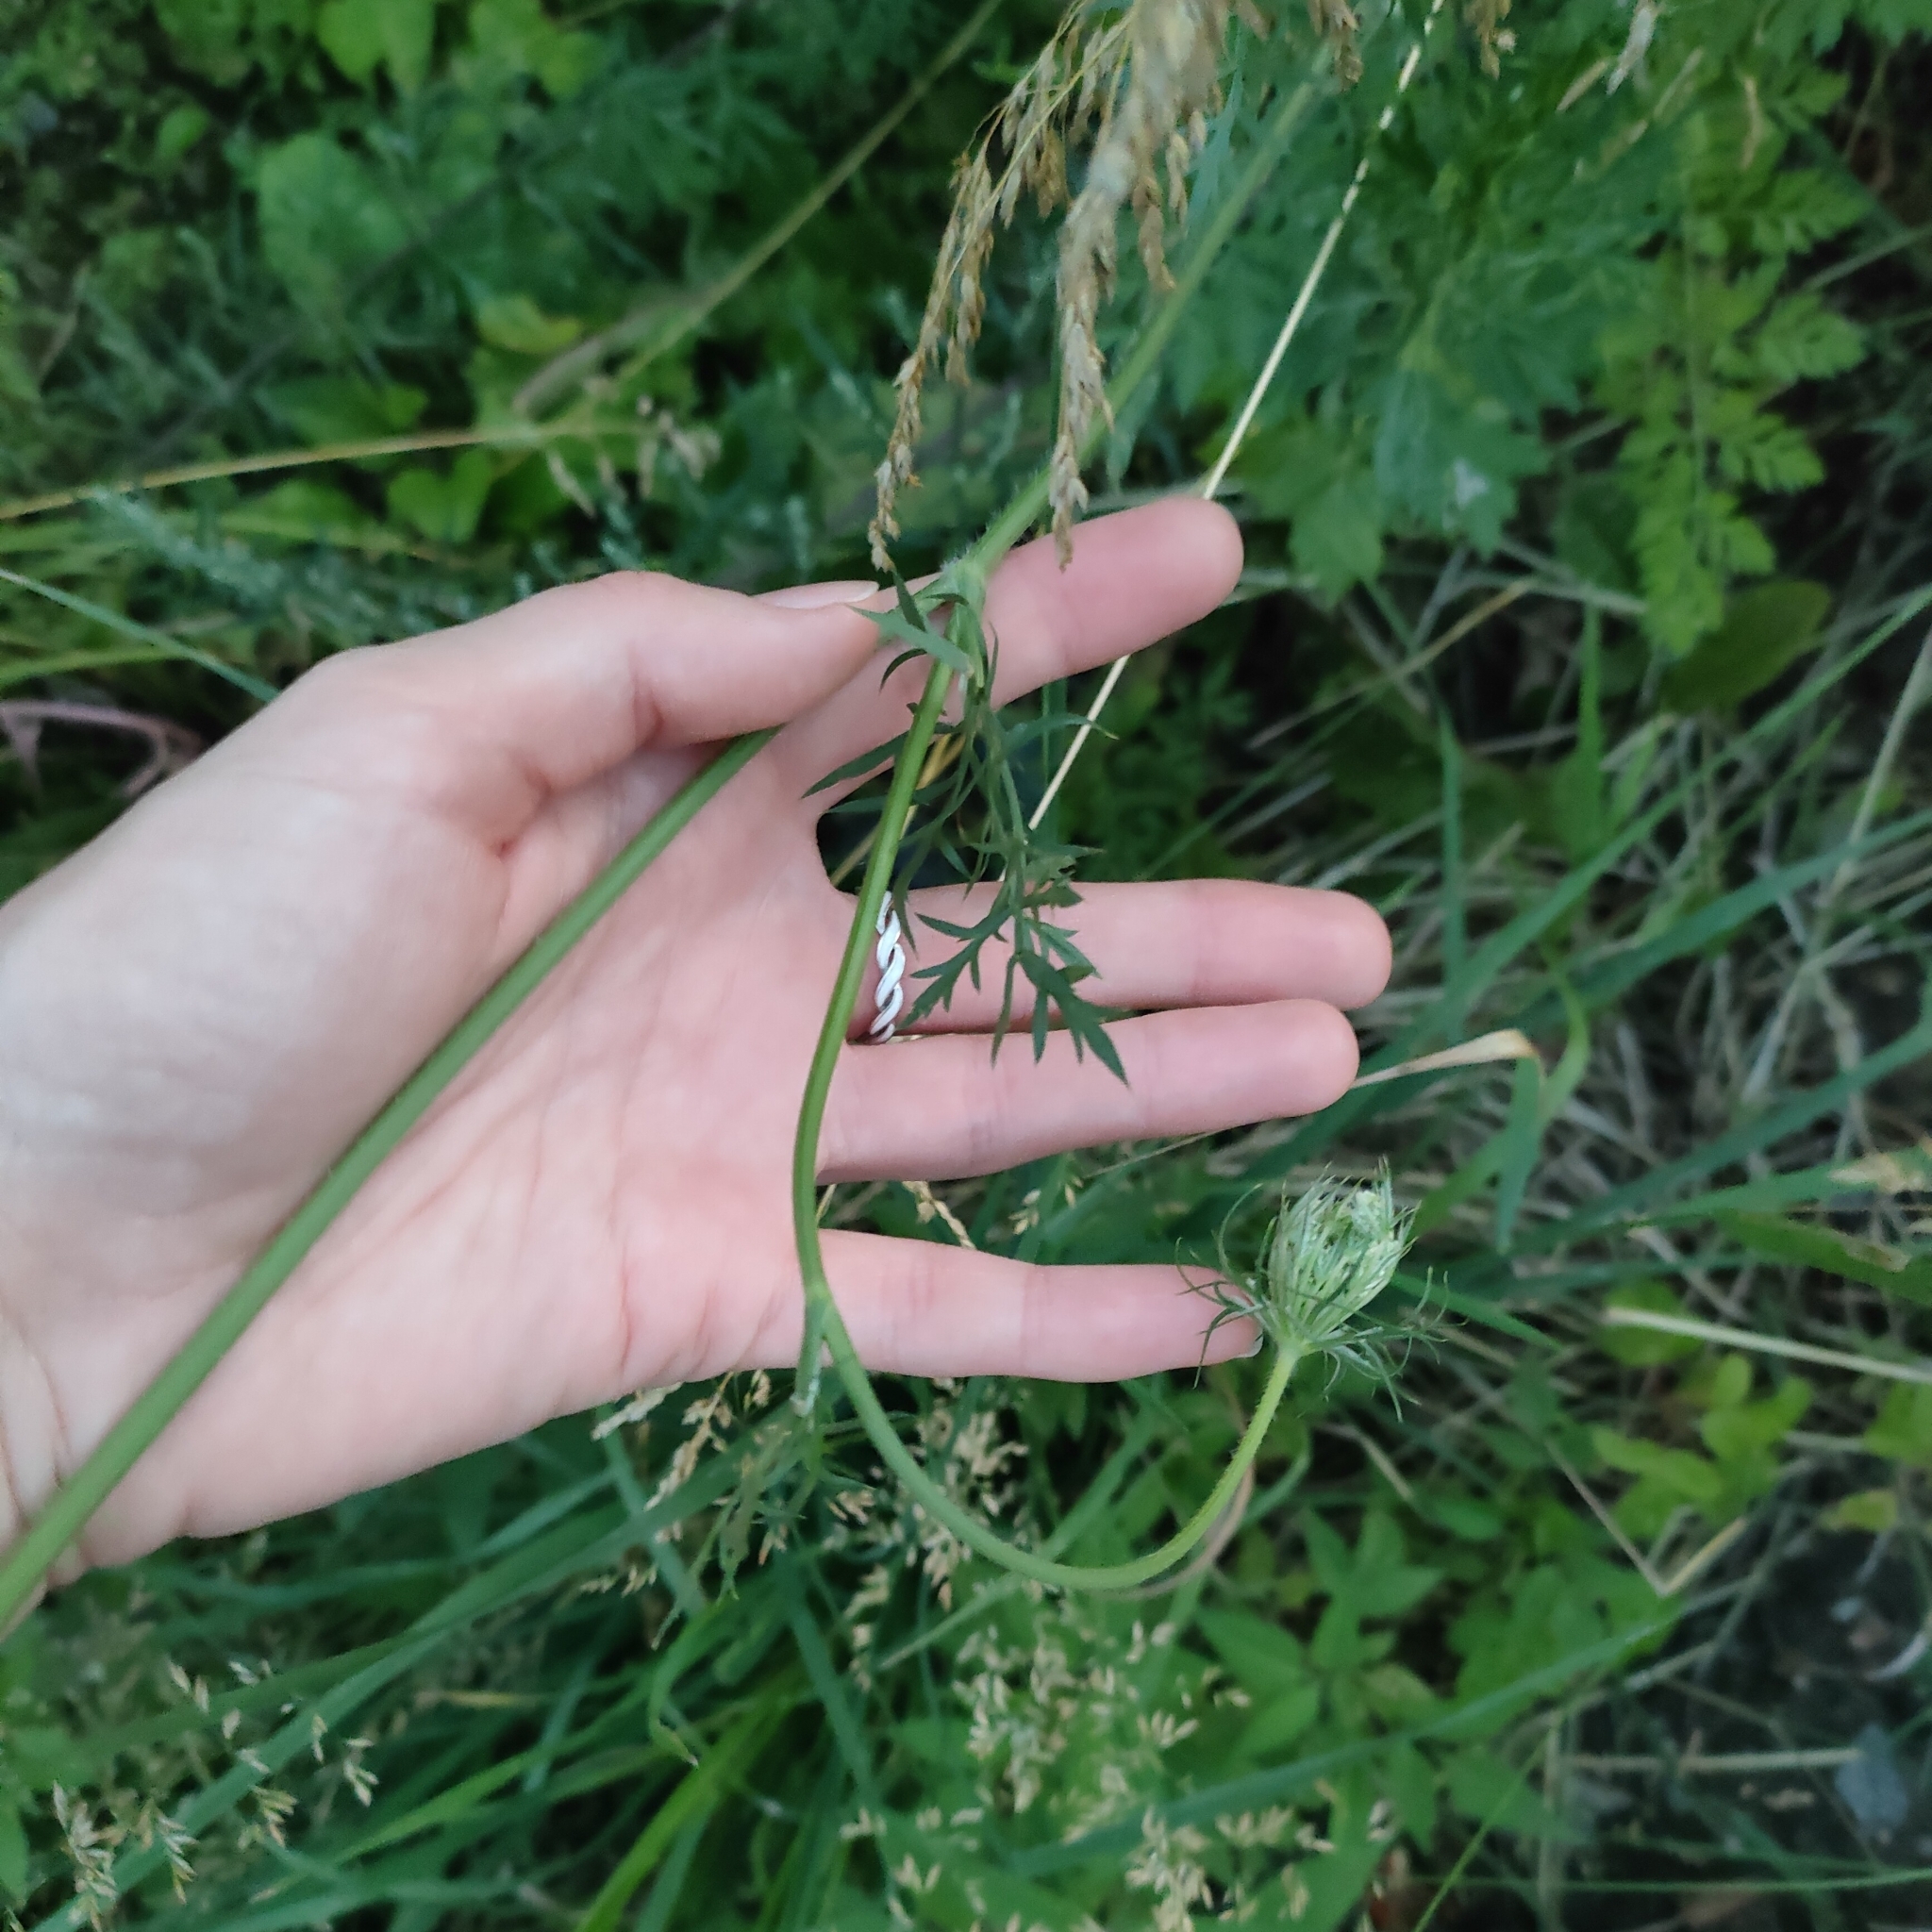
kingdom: Plantae
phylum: Tracheophyta
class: Magnoliopsida
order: Apiales
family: Apiaceae
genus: Daucus
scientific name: Daucus carota
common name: Wild carrot
